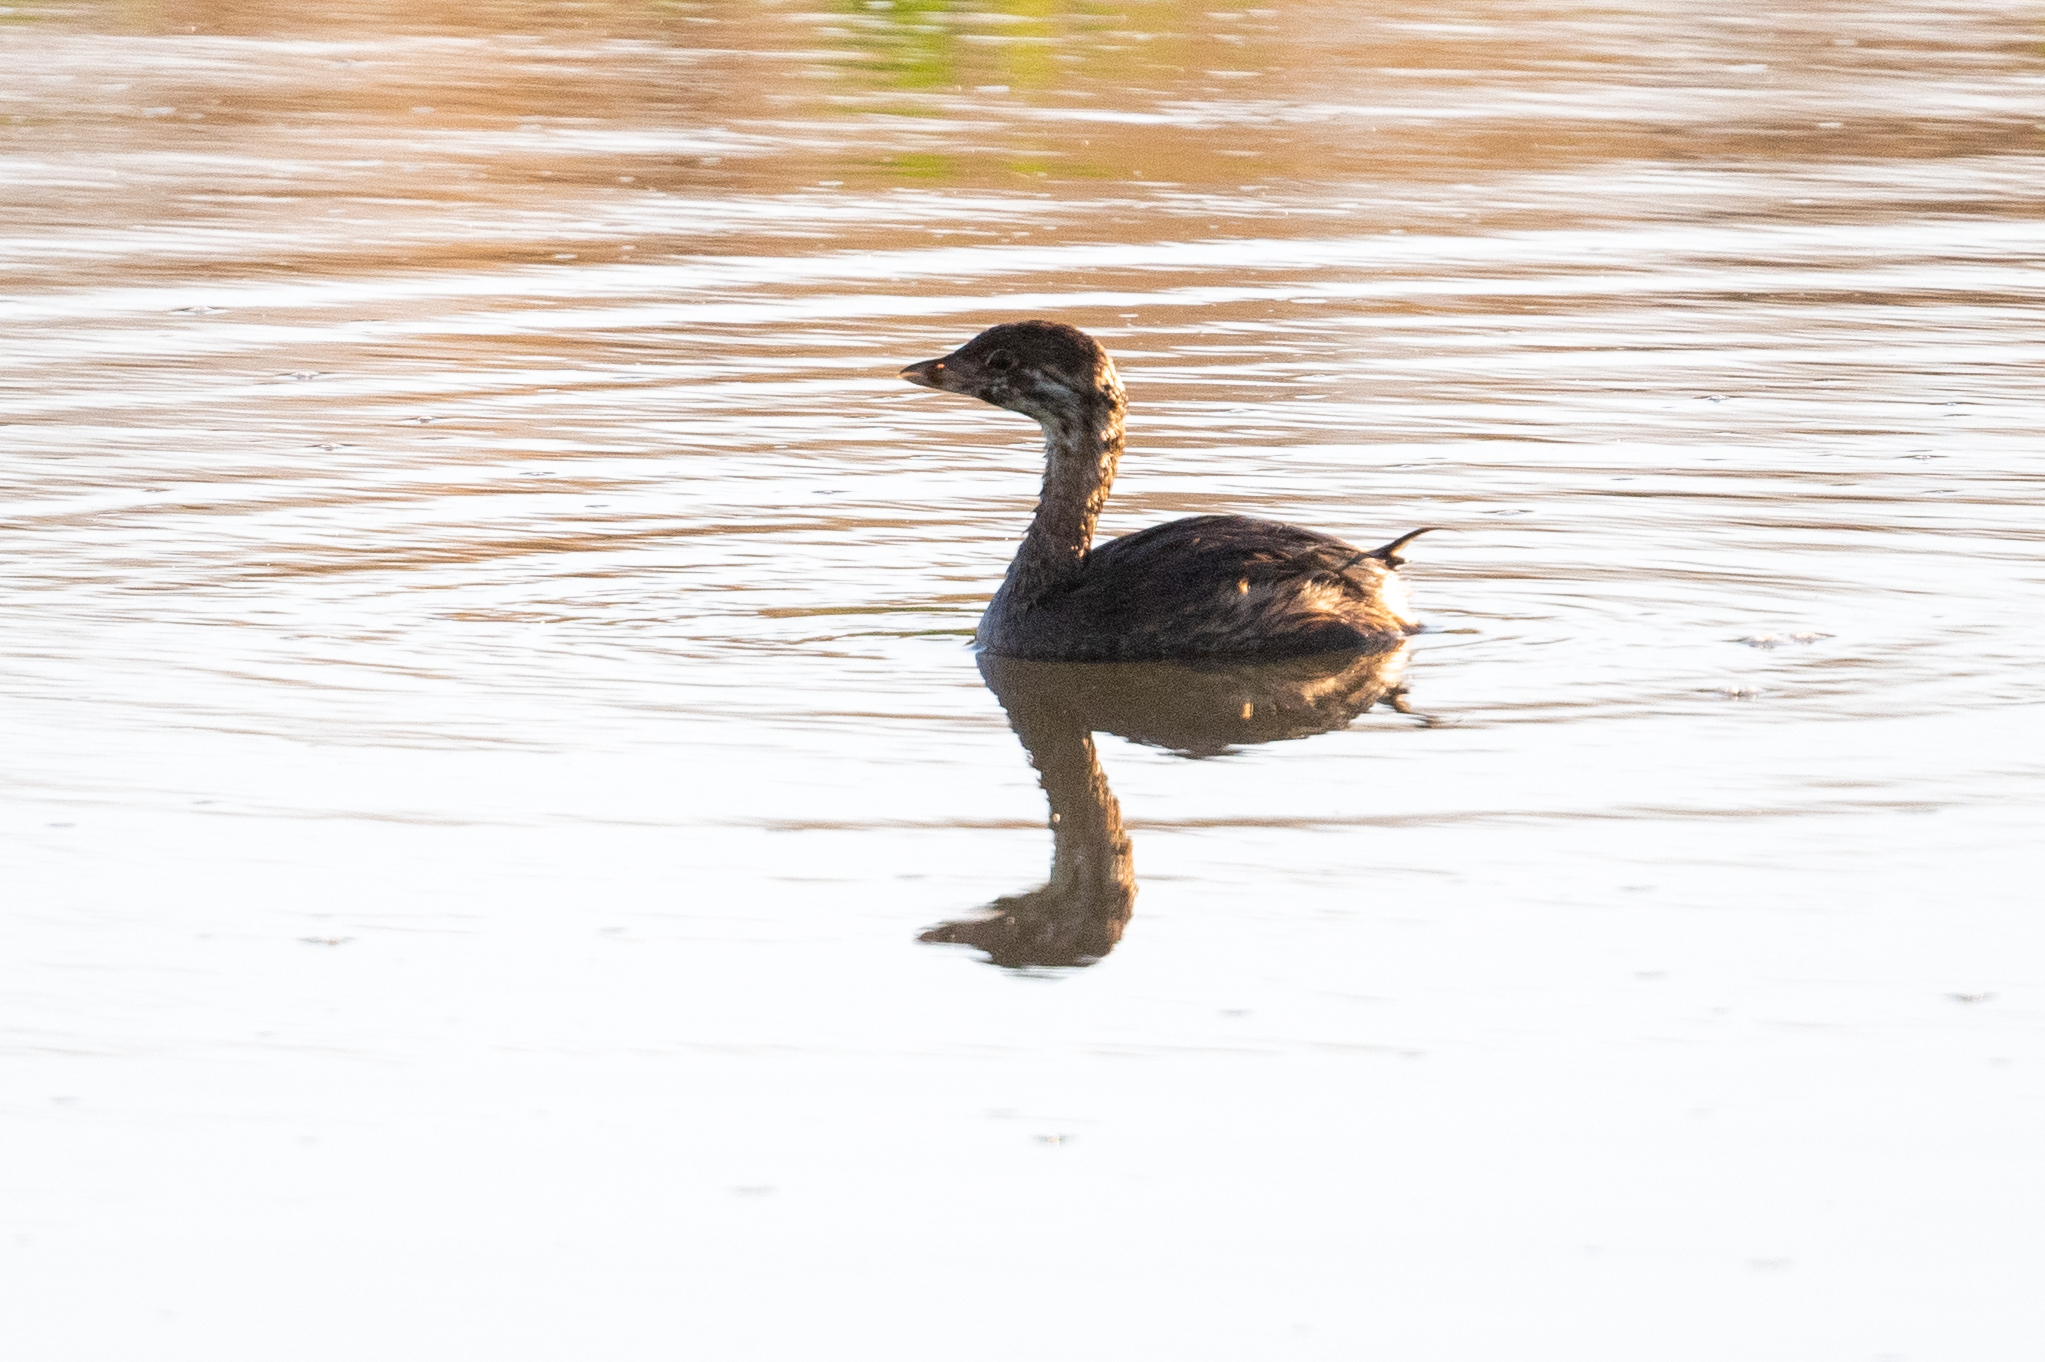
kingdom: Animalia
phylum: Chordata
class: Aves
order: Podicipediformes
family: Podicipedidae
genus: Podilymbus
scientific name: Podilymbus podiceps
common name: Pied-billed grebe
